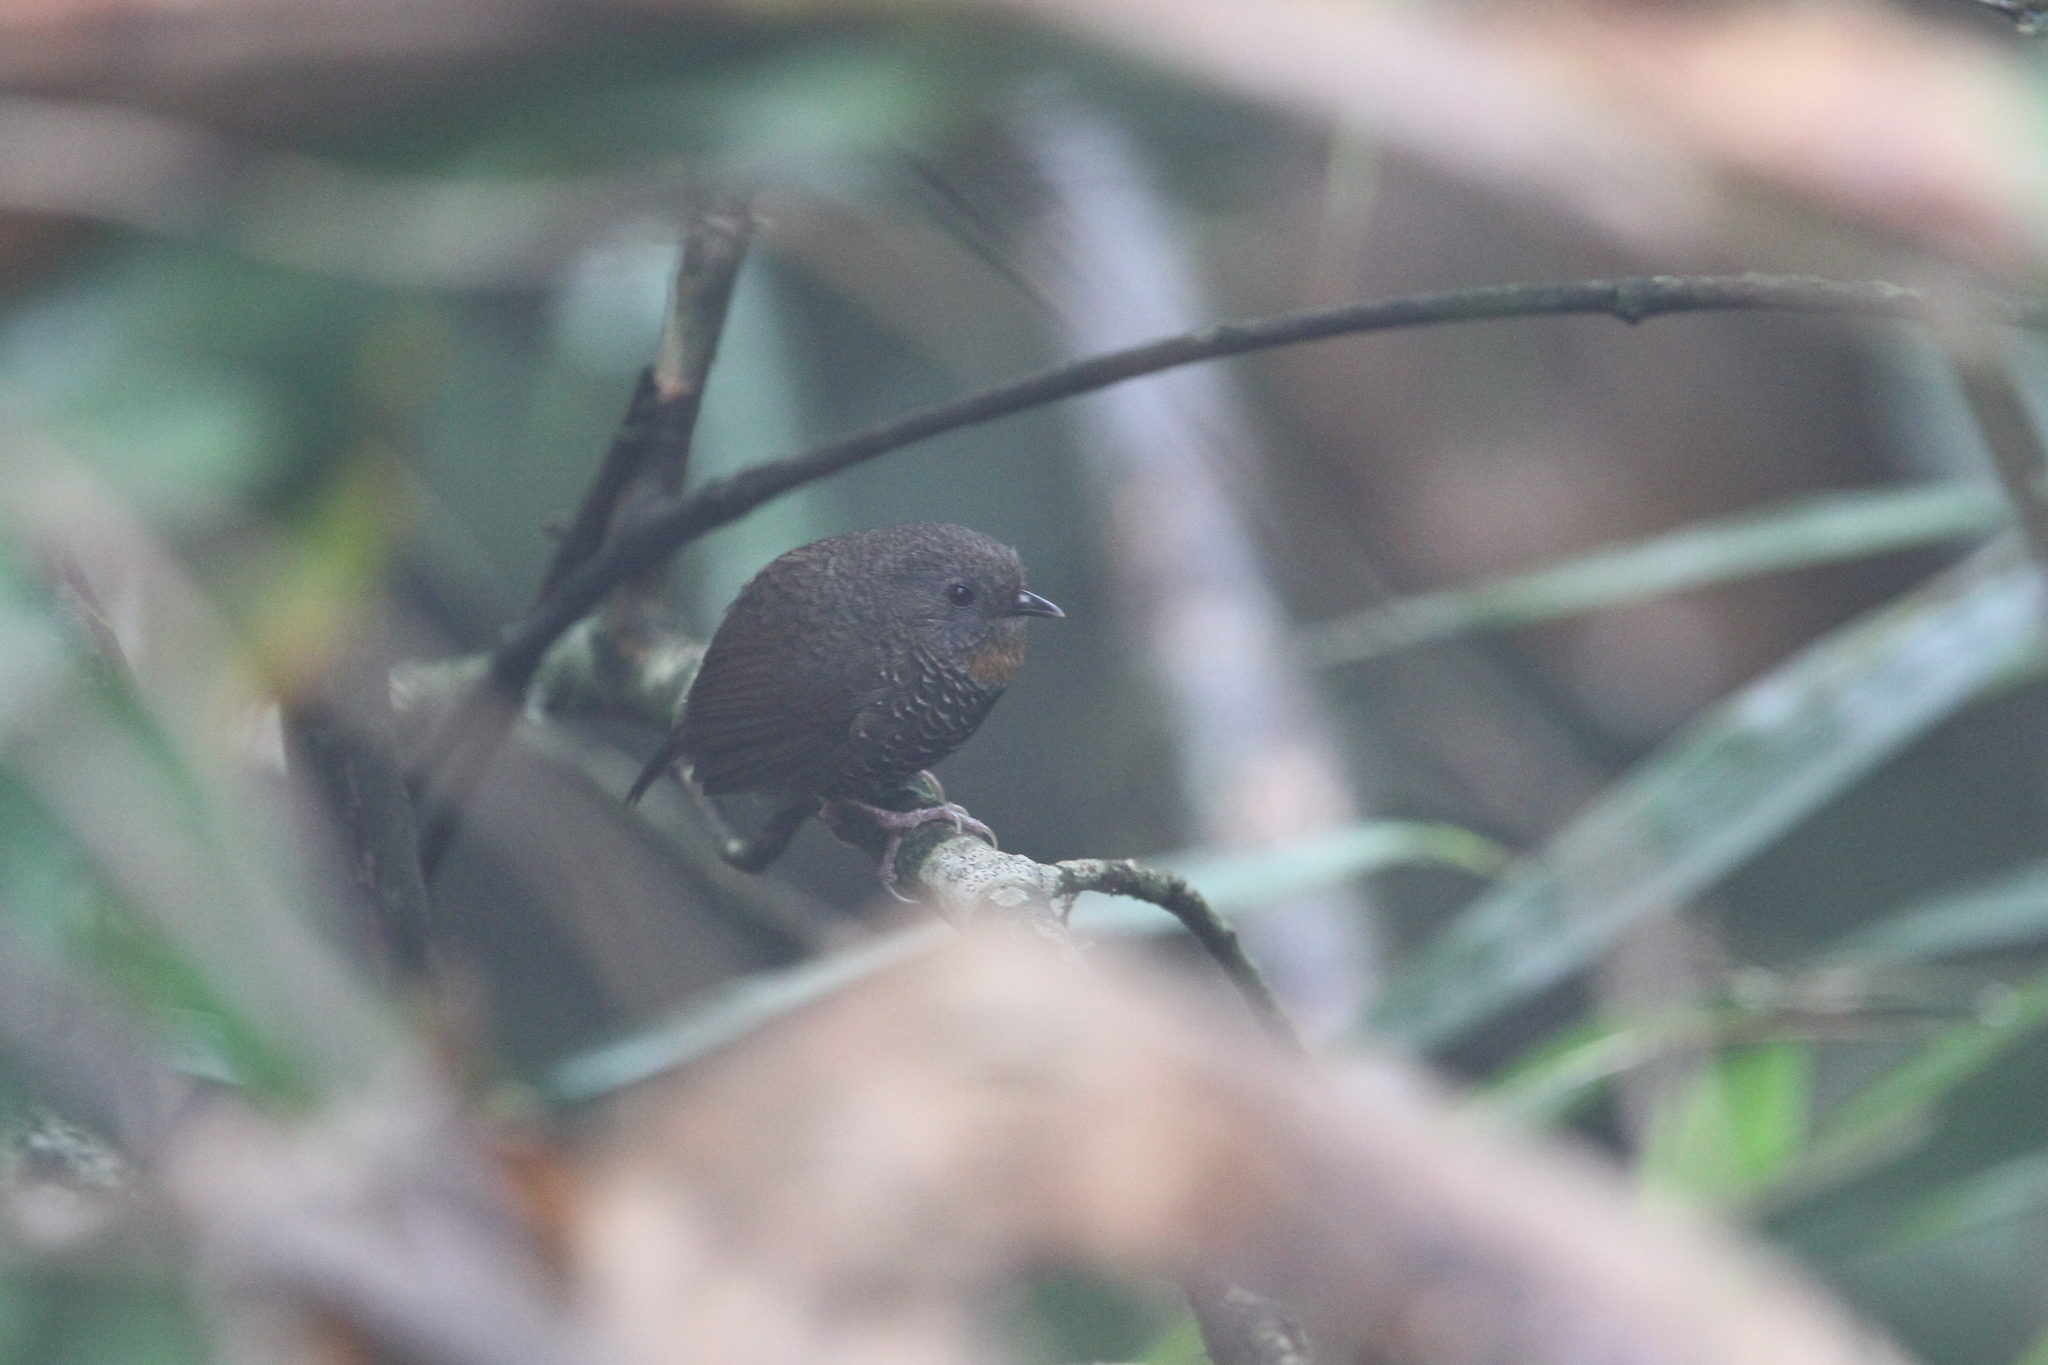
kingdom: Animalia
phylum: Chordata
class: Aves
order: Passeriformes
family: Timaliidae
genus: Spelaeornis
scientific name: Spelaeornis badeigularis
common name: Rusty-throated wren-babbler
